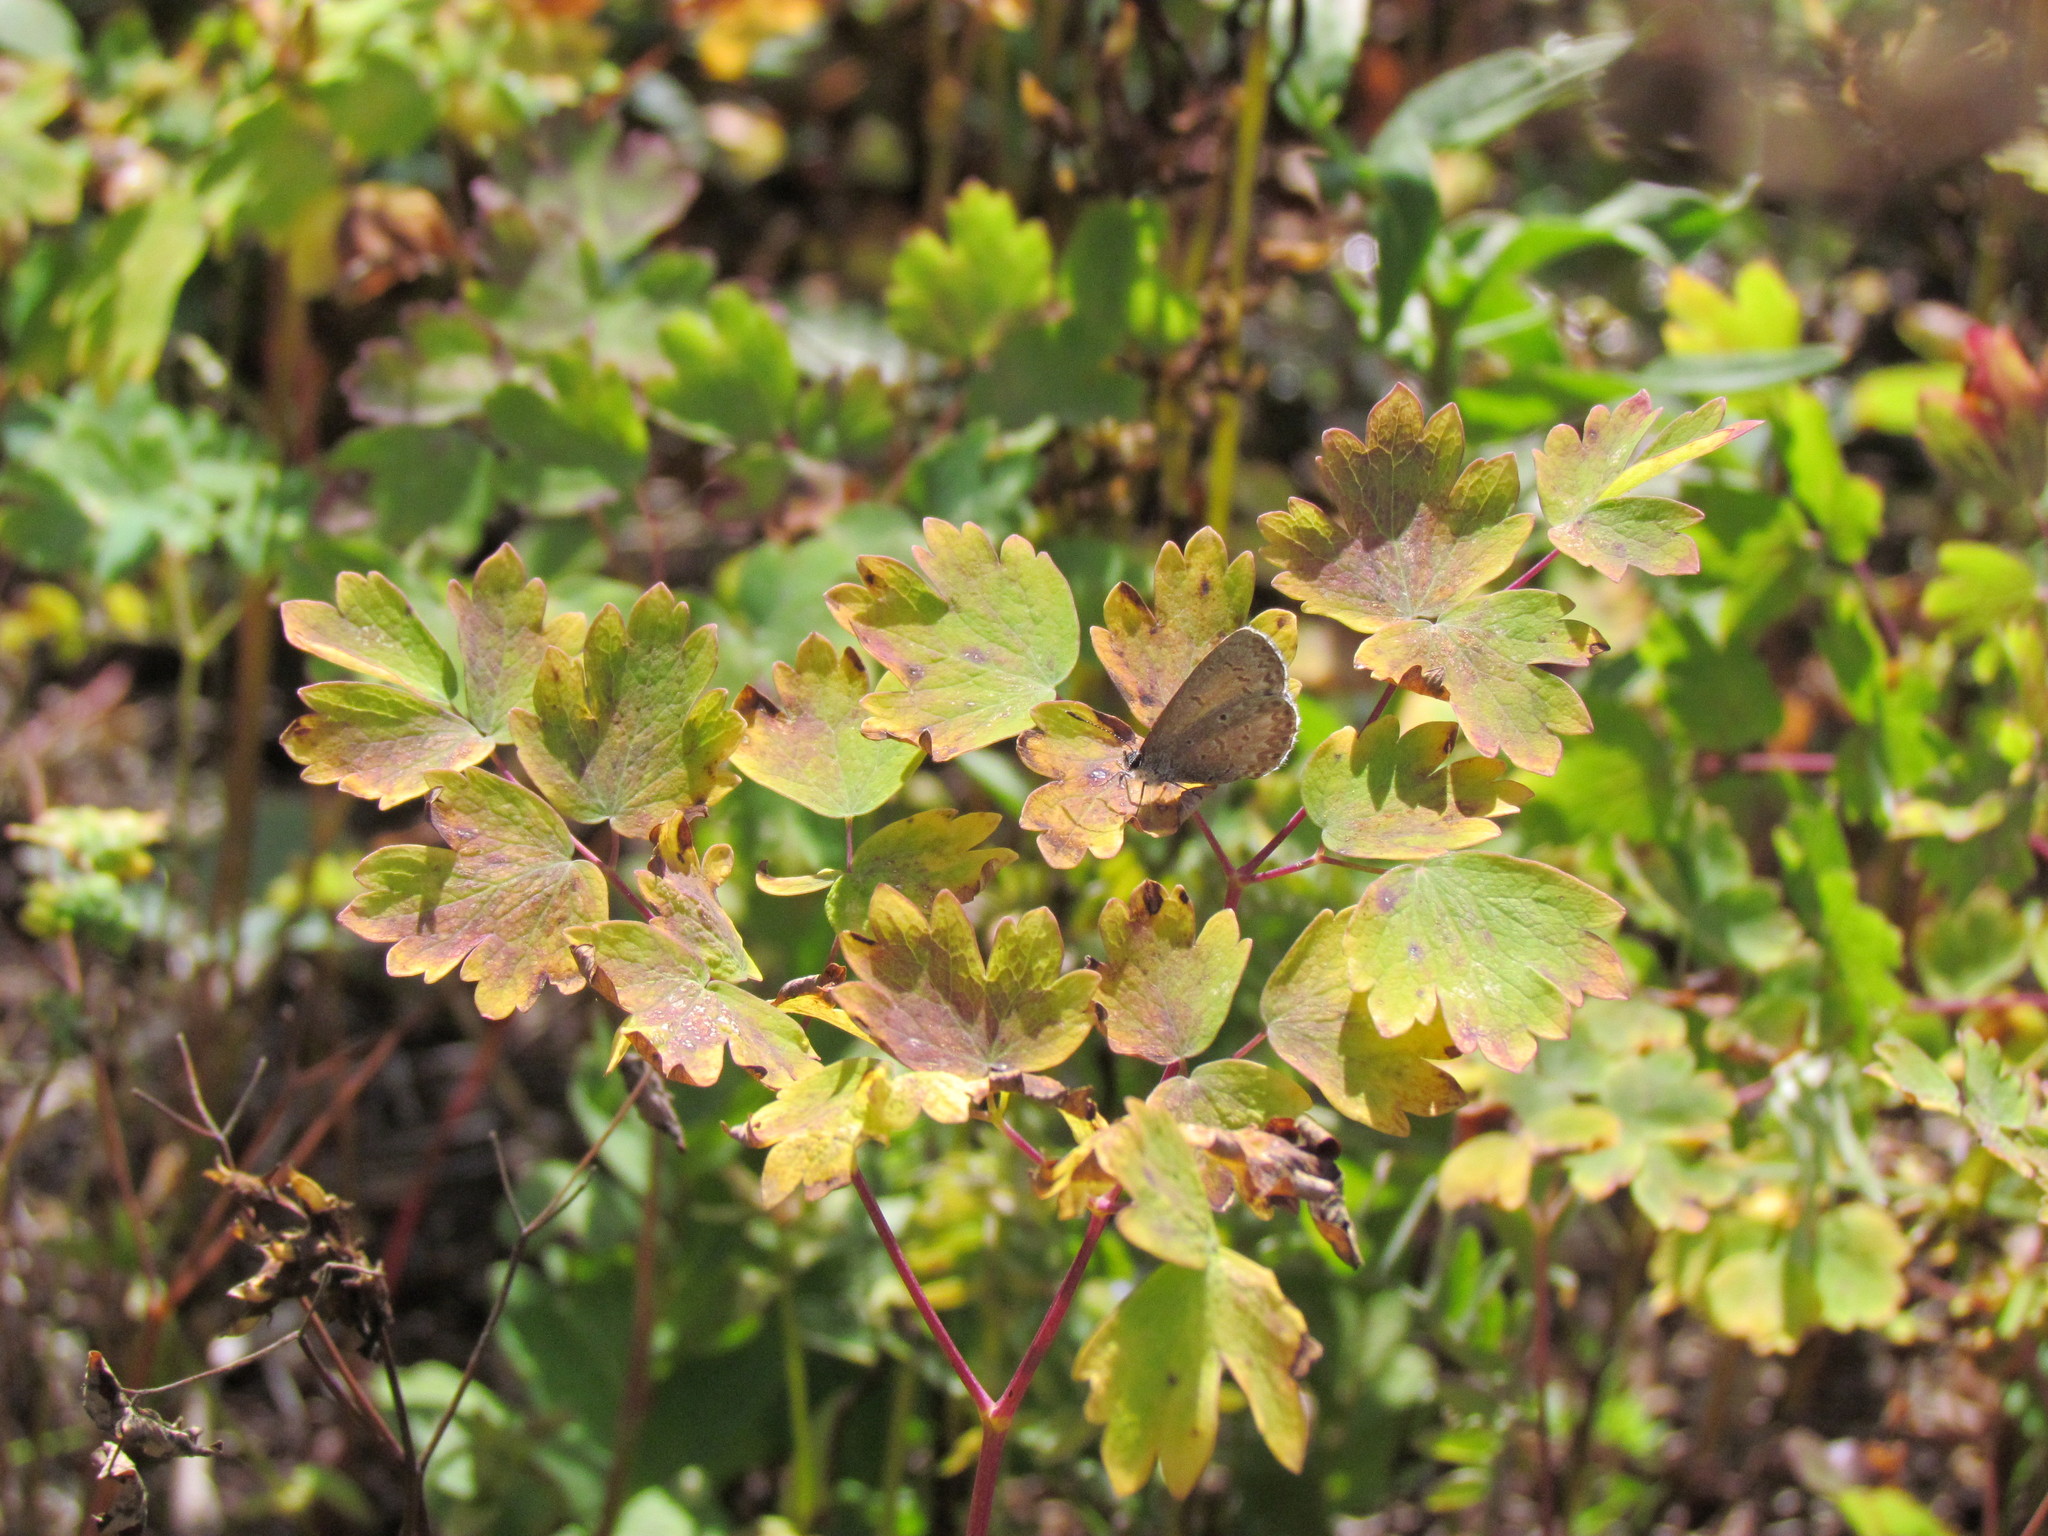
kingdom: Animalia
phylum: Arthropoda
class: Insecta
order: Lepidoptera
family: Lycaenidae
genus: Celastrina
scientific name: Celastrina lucia
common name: Lucia azure
